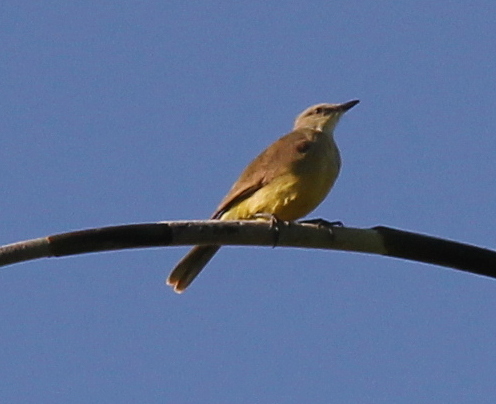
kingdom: Animalia
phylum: Chordata
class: Aves
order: Passeriformes
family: Tyrannidae
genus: Machetornis
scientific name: Machetornis rixosa
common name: Cattle tyrant
